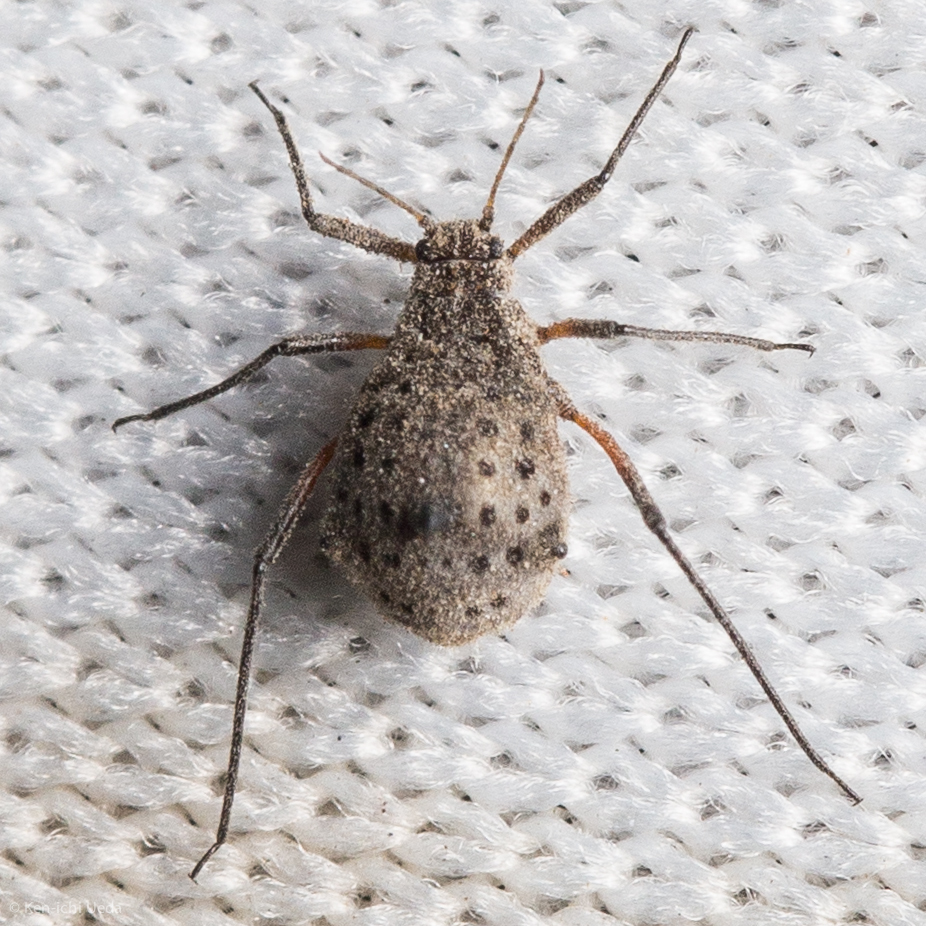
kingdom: Animalia
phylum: Arthropoda
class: Insecta
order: Hemiptera
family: Aphididae
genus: Tuberolachnus
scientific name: Tuberolachnus salignus
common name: Giant willow aphid
